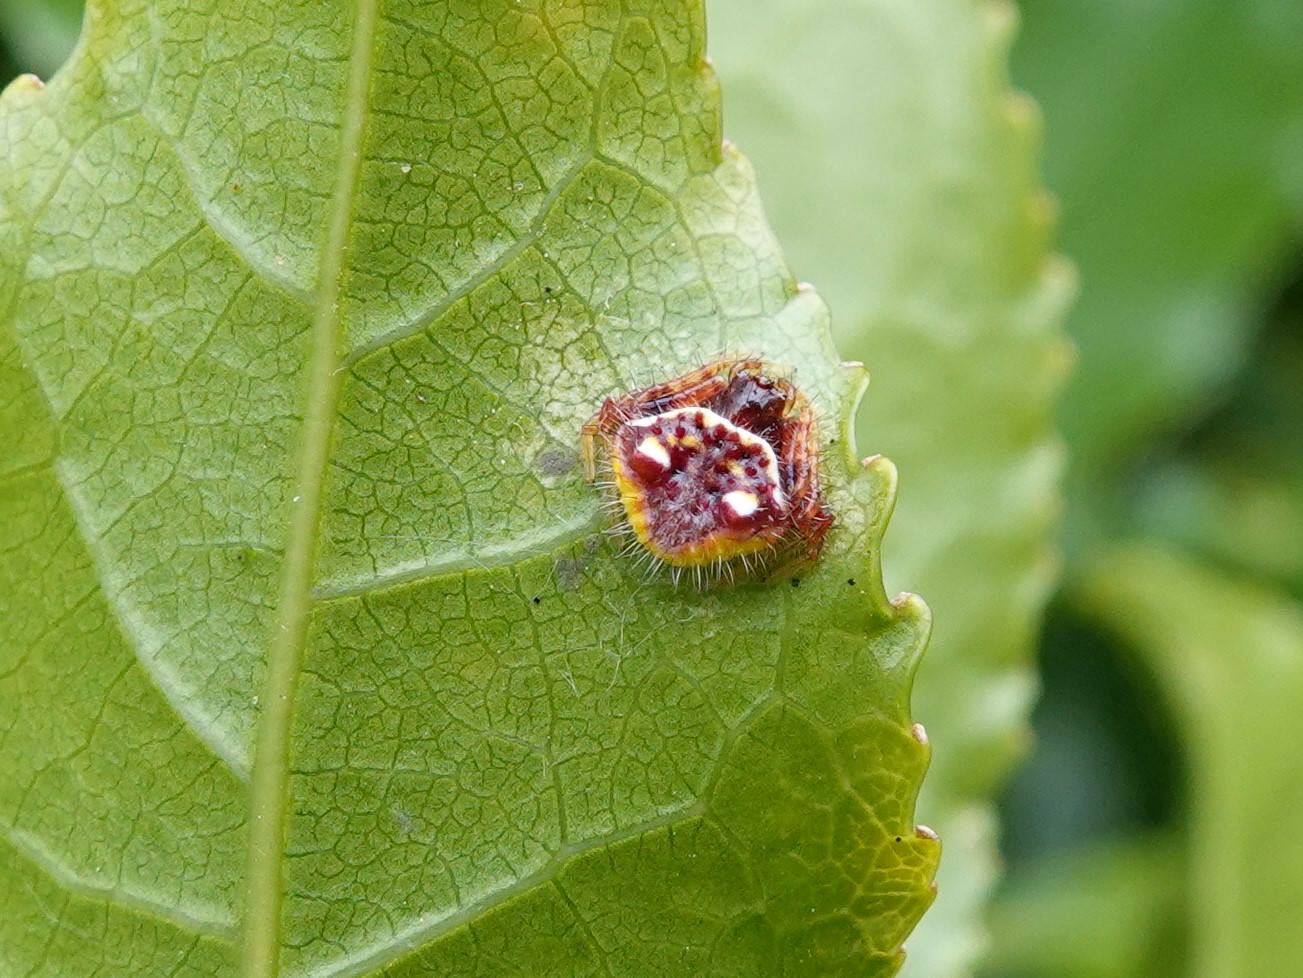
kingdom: Animalia
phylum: Arthropoda
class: Arachnida
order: Araneae
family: Araneidae
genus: Poecilopachys
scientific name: Poecilopachys australasia
